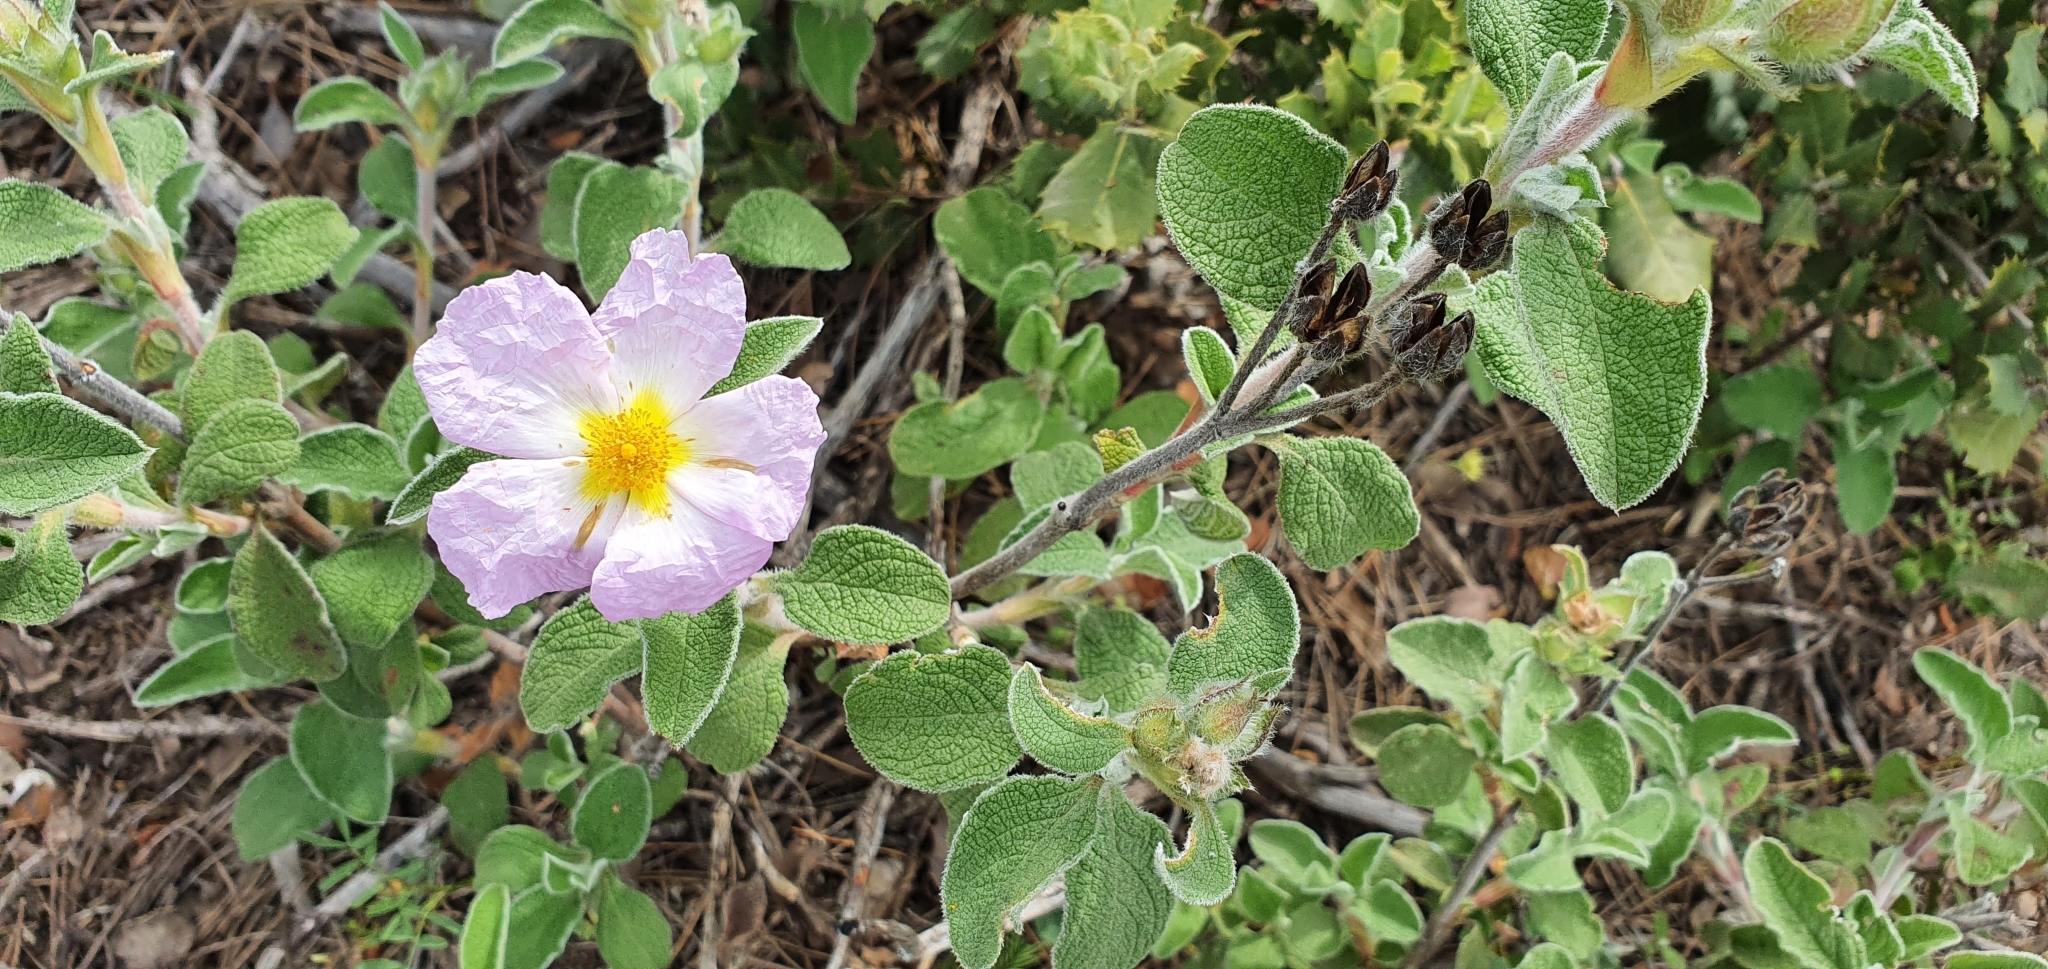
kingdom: Plantae
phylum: Tracheophyta
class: Magnoliopsida
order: Malvales
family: Cistaceae
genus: Cistus
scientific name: Cistus creticus
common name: Cretan rockrose
